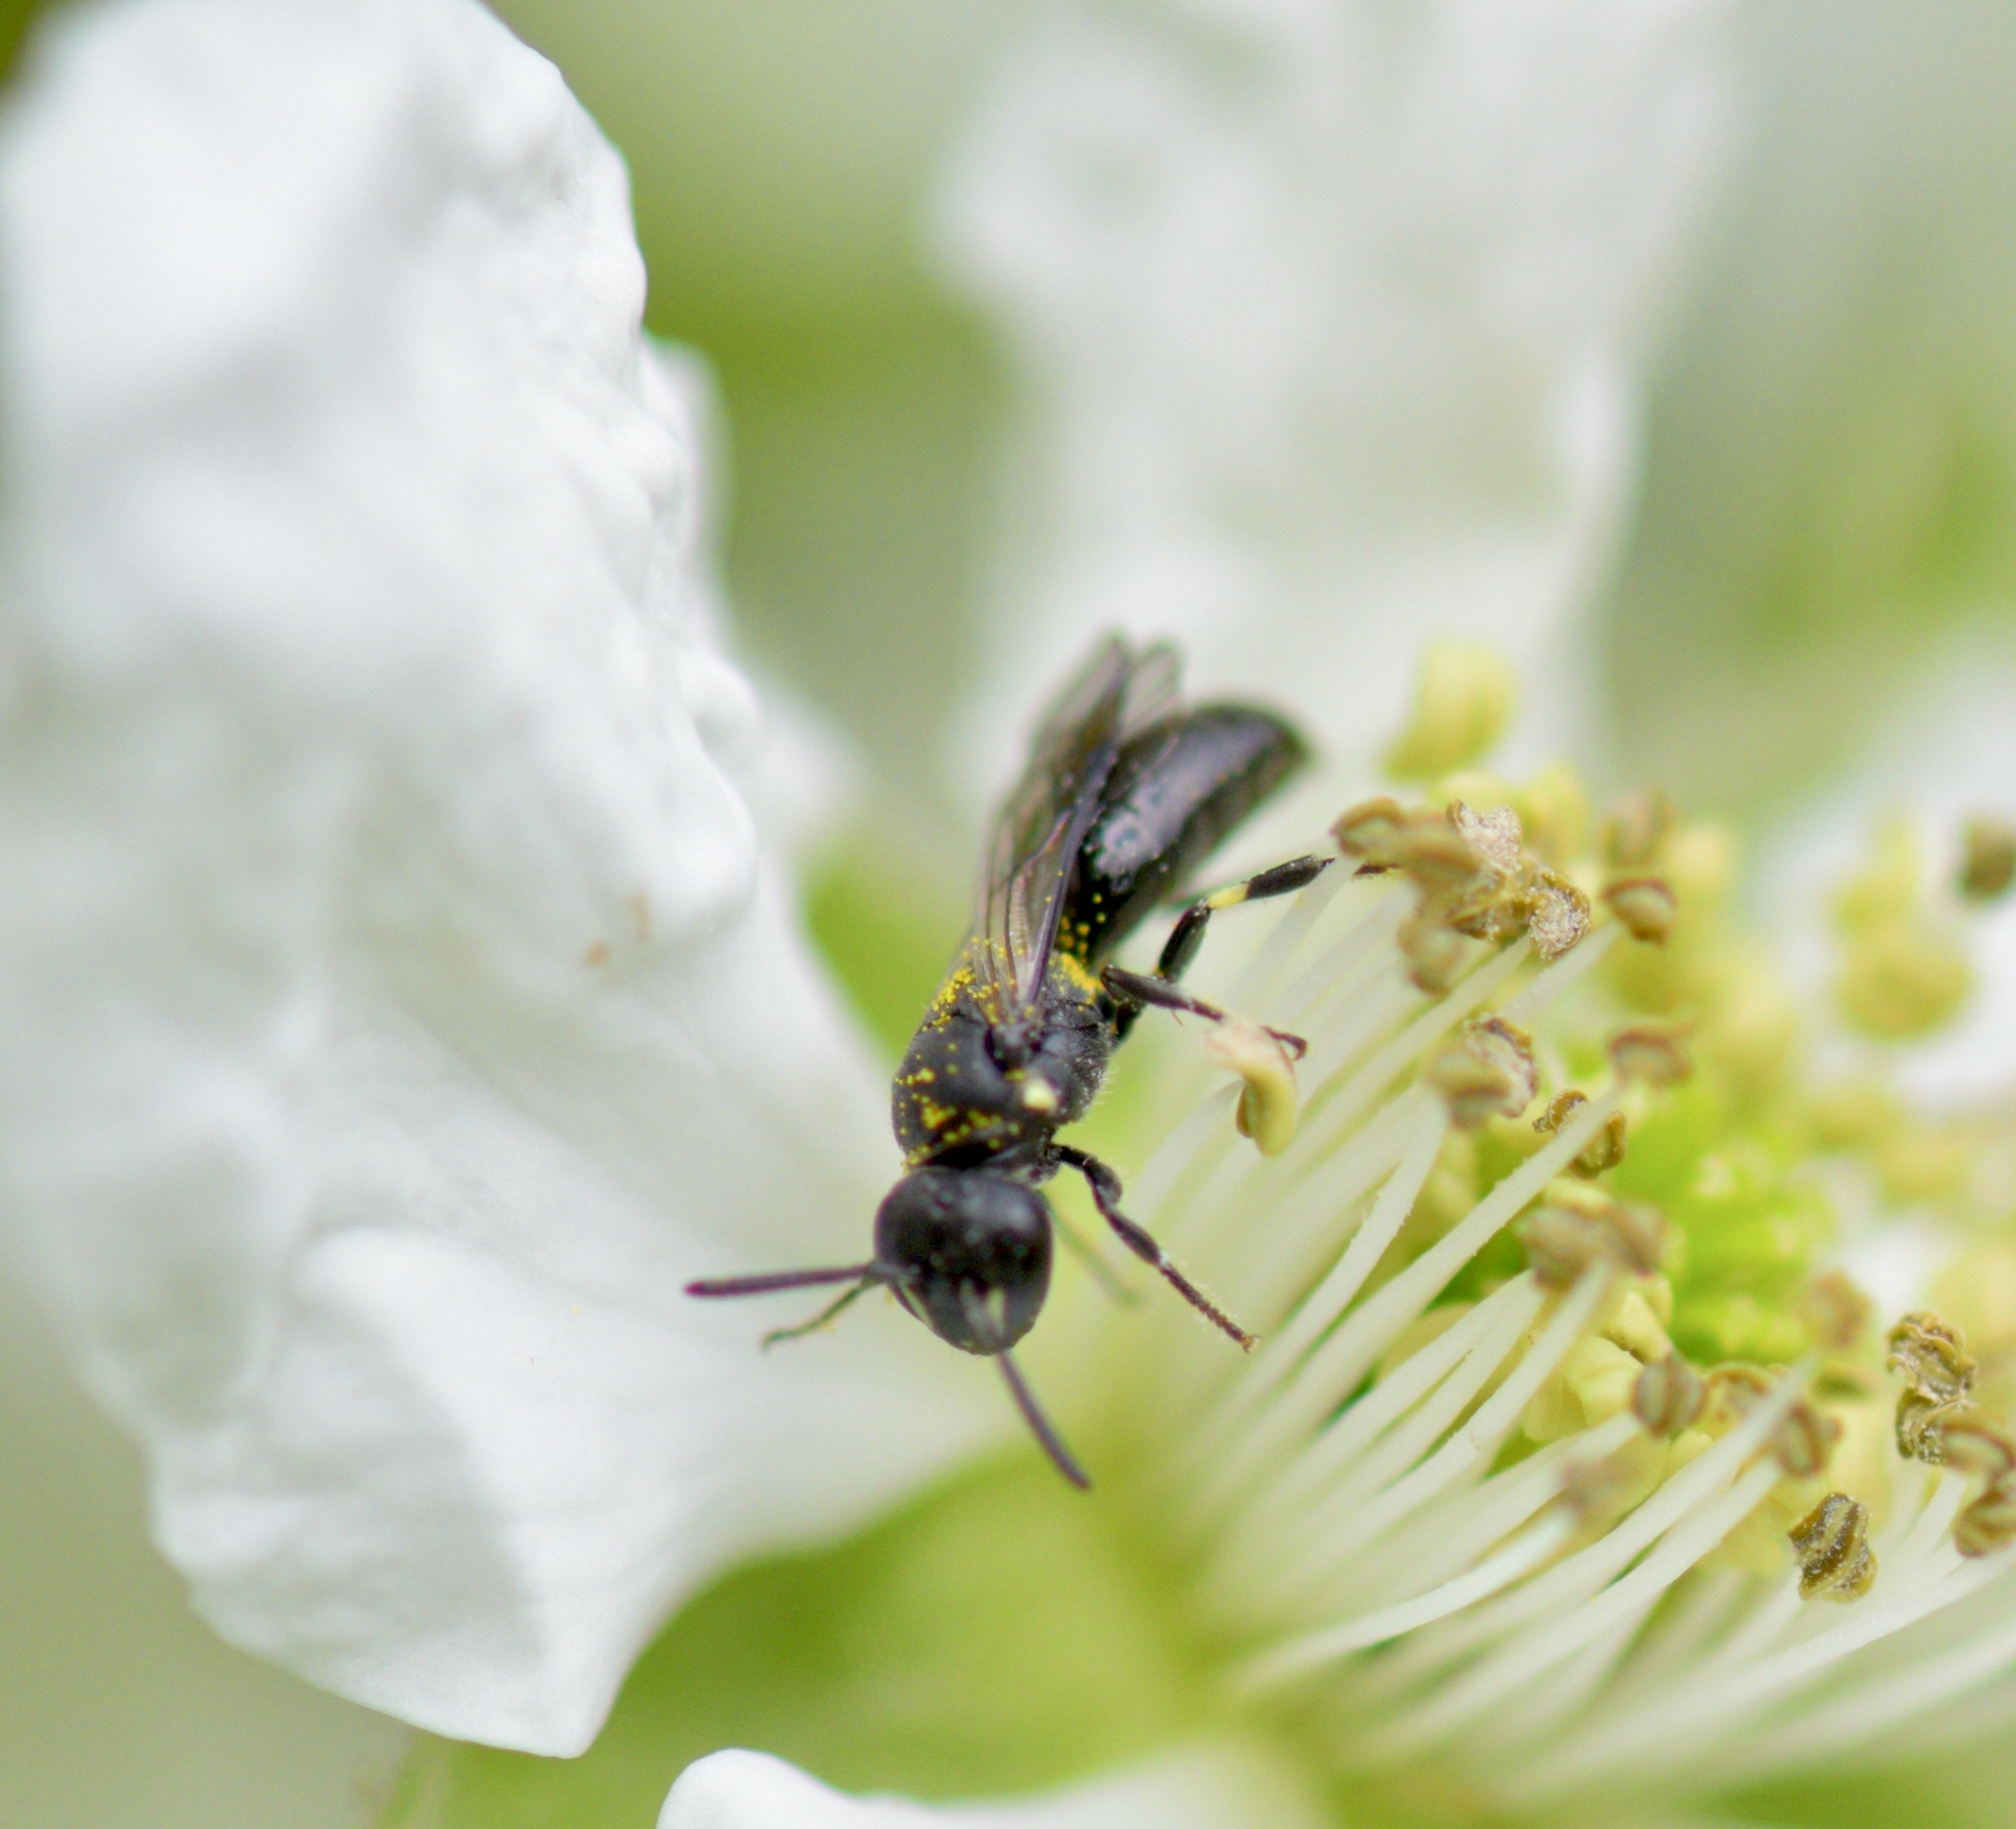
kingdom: Animalia
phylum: Arthropoda
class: Insecta
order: Hymenoptera
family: Colletidae
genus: Hylaeus
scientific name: Hylaeus annulatus
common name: Annulate masked bee
